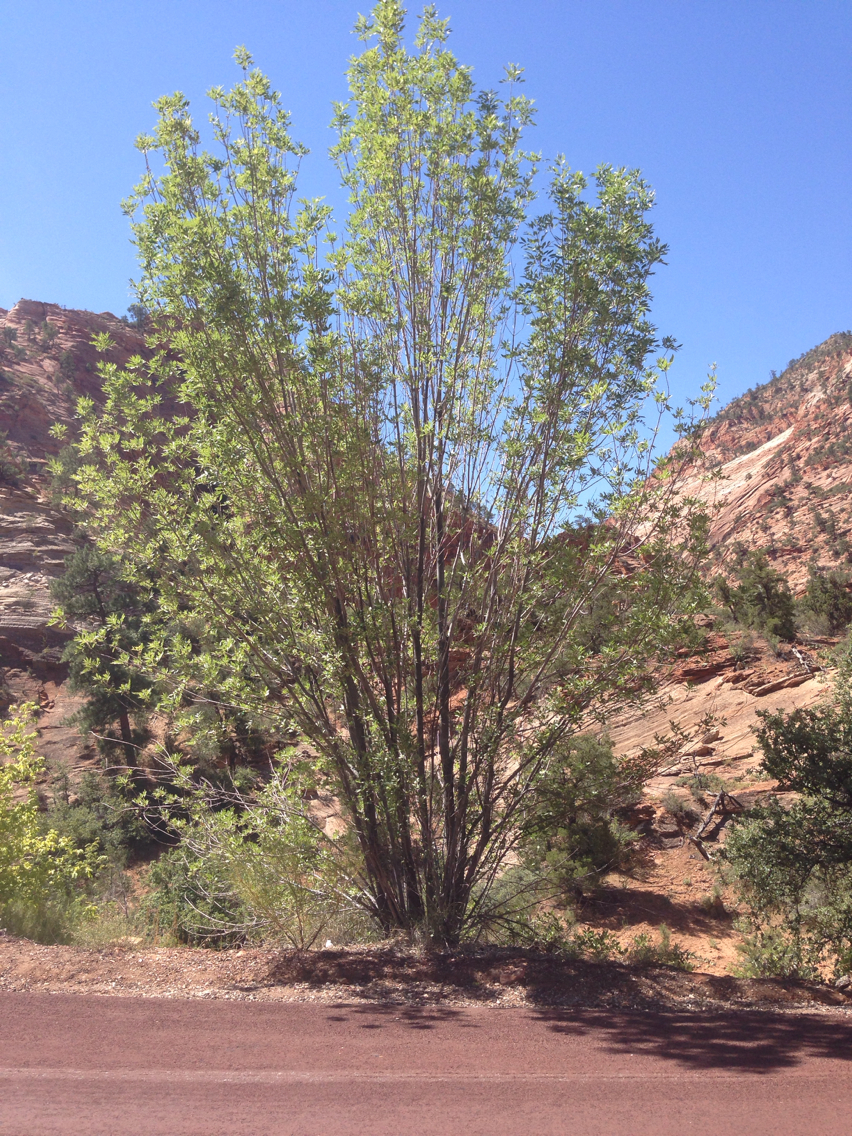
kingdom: Plantae
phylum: Tracheophyta
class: Magnoliopsida
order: Lamiales
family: Oleaceae
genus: Fraxinus
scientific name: Fraxinus anomala
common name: Utah ash
